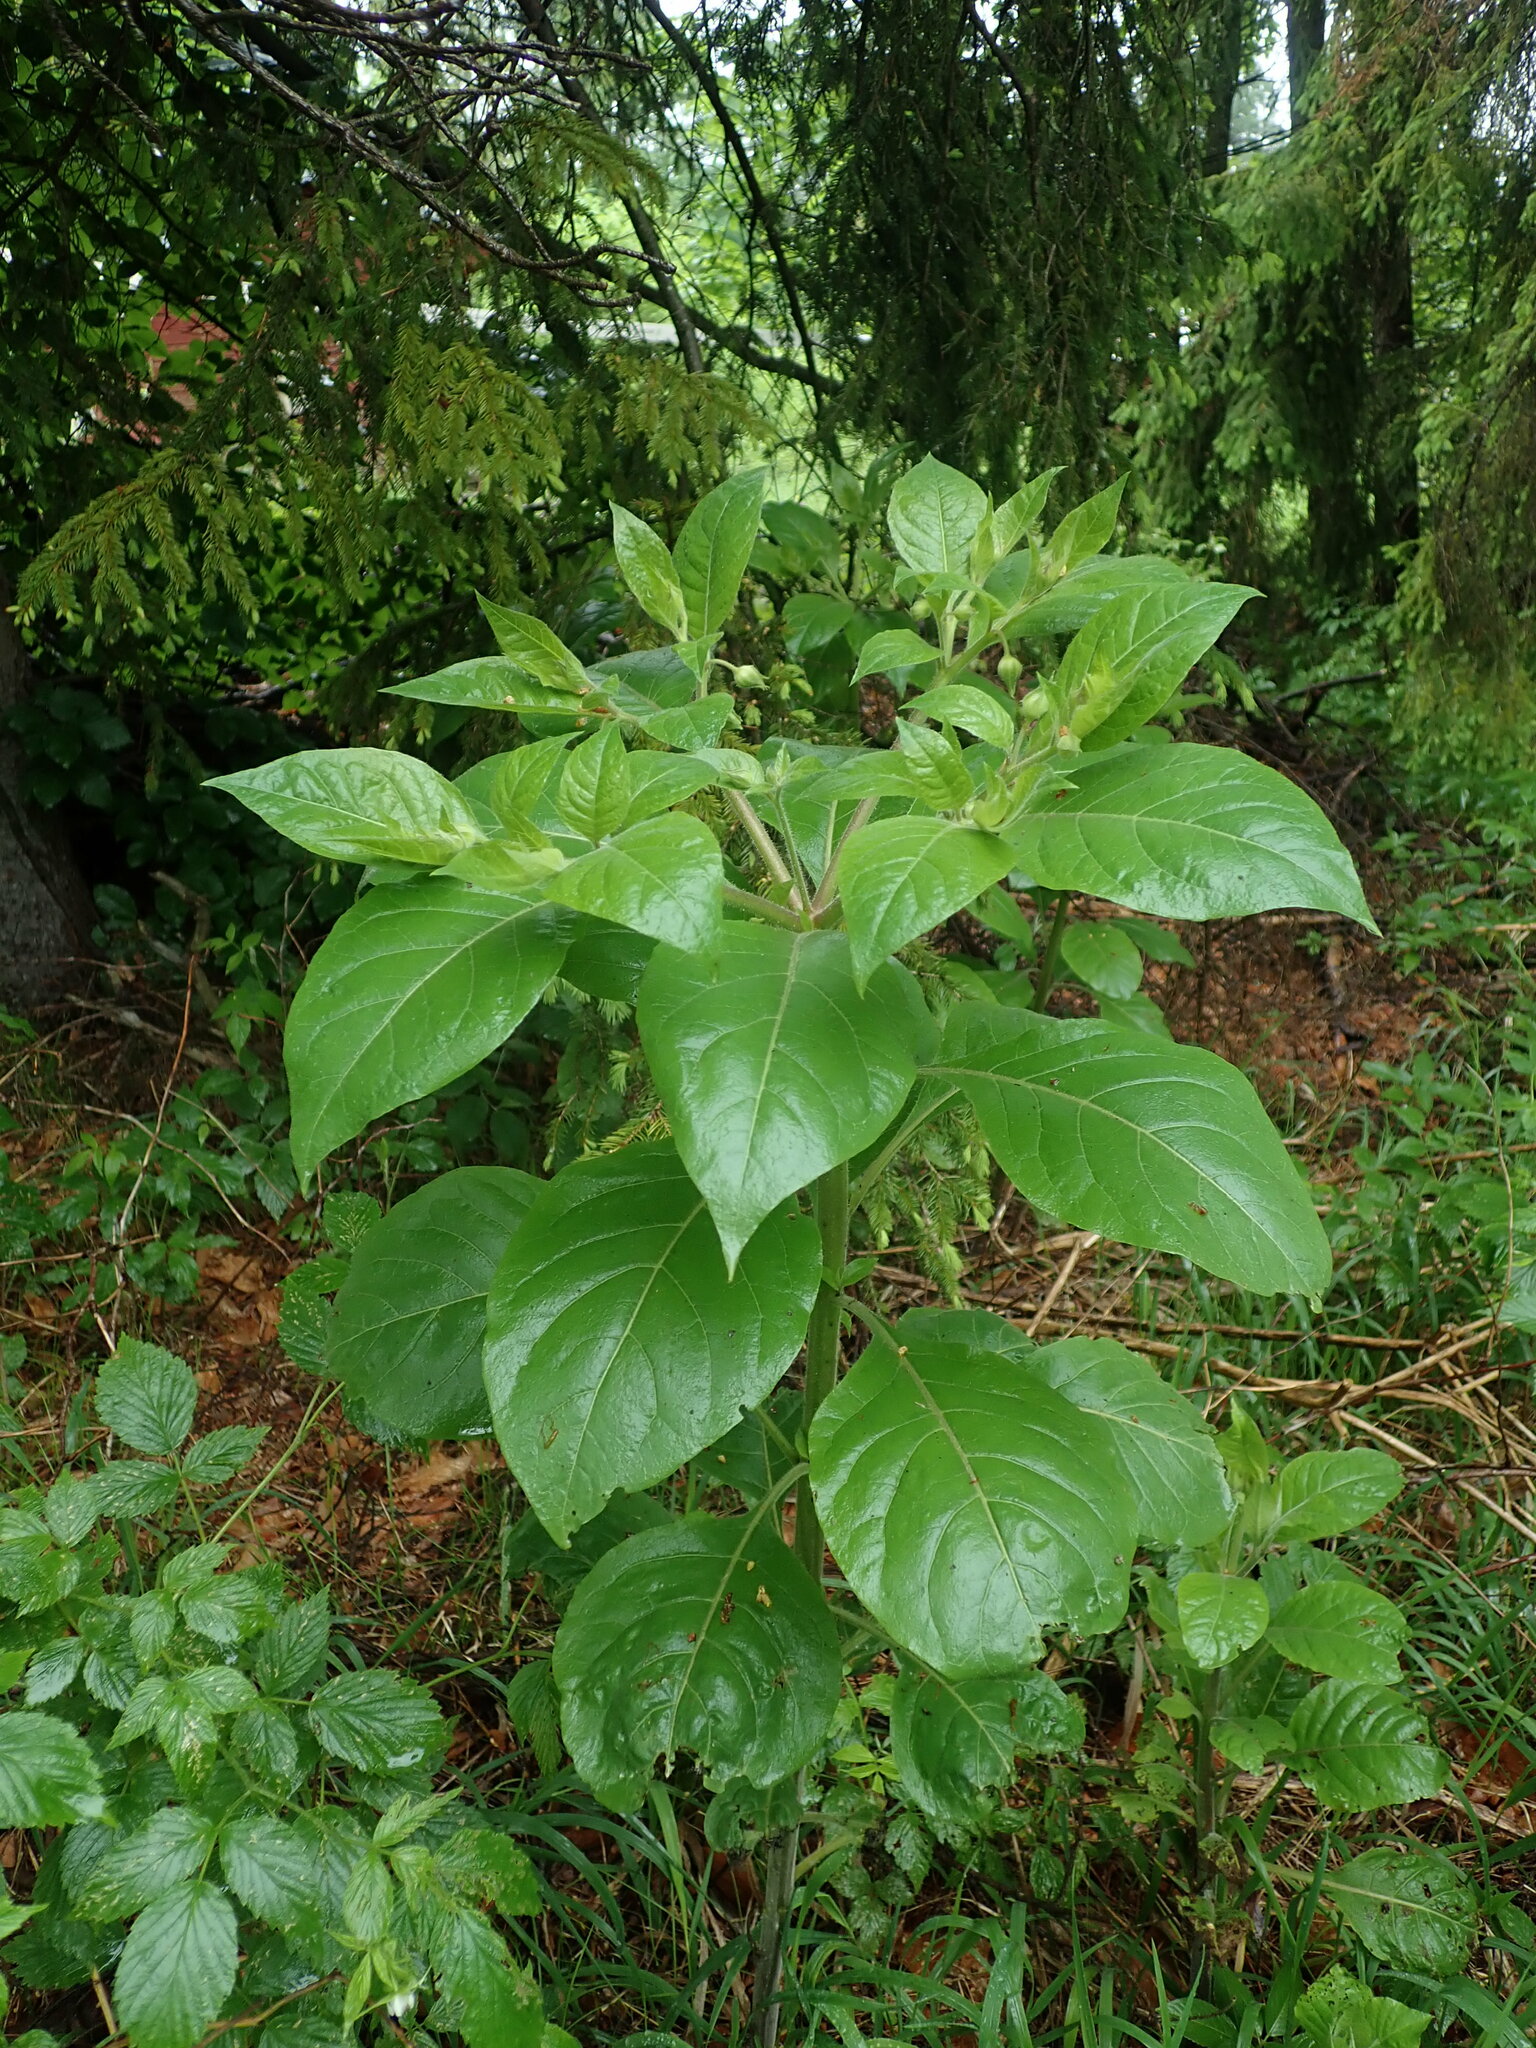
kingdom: Plantae
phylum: Tracheophyta
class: Magnoliopsida
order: Solanales
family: Solanaceae
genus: Atropa
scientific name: Atropa belladonna
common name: Deadly nightshade
